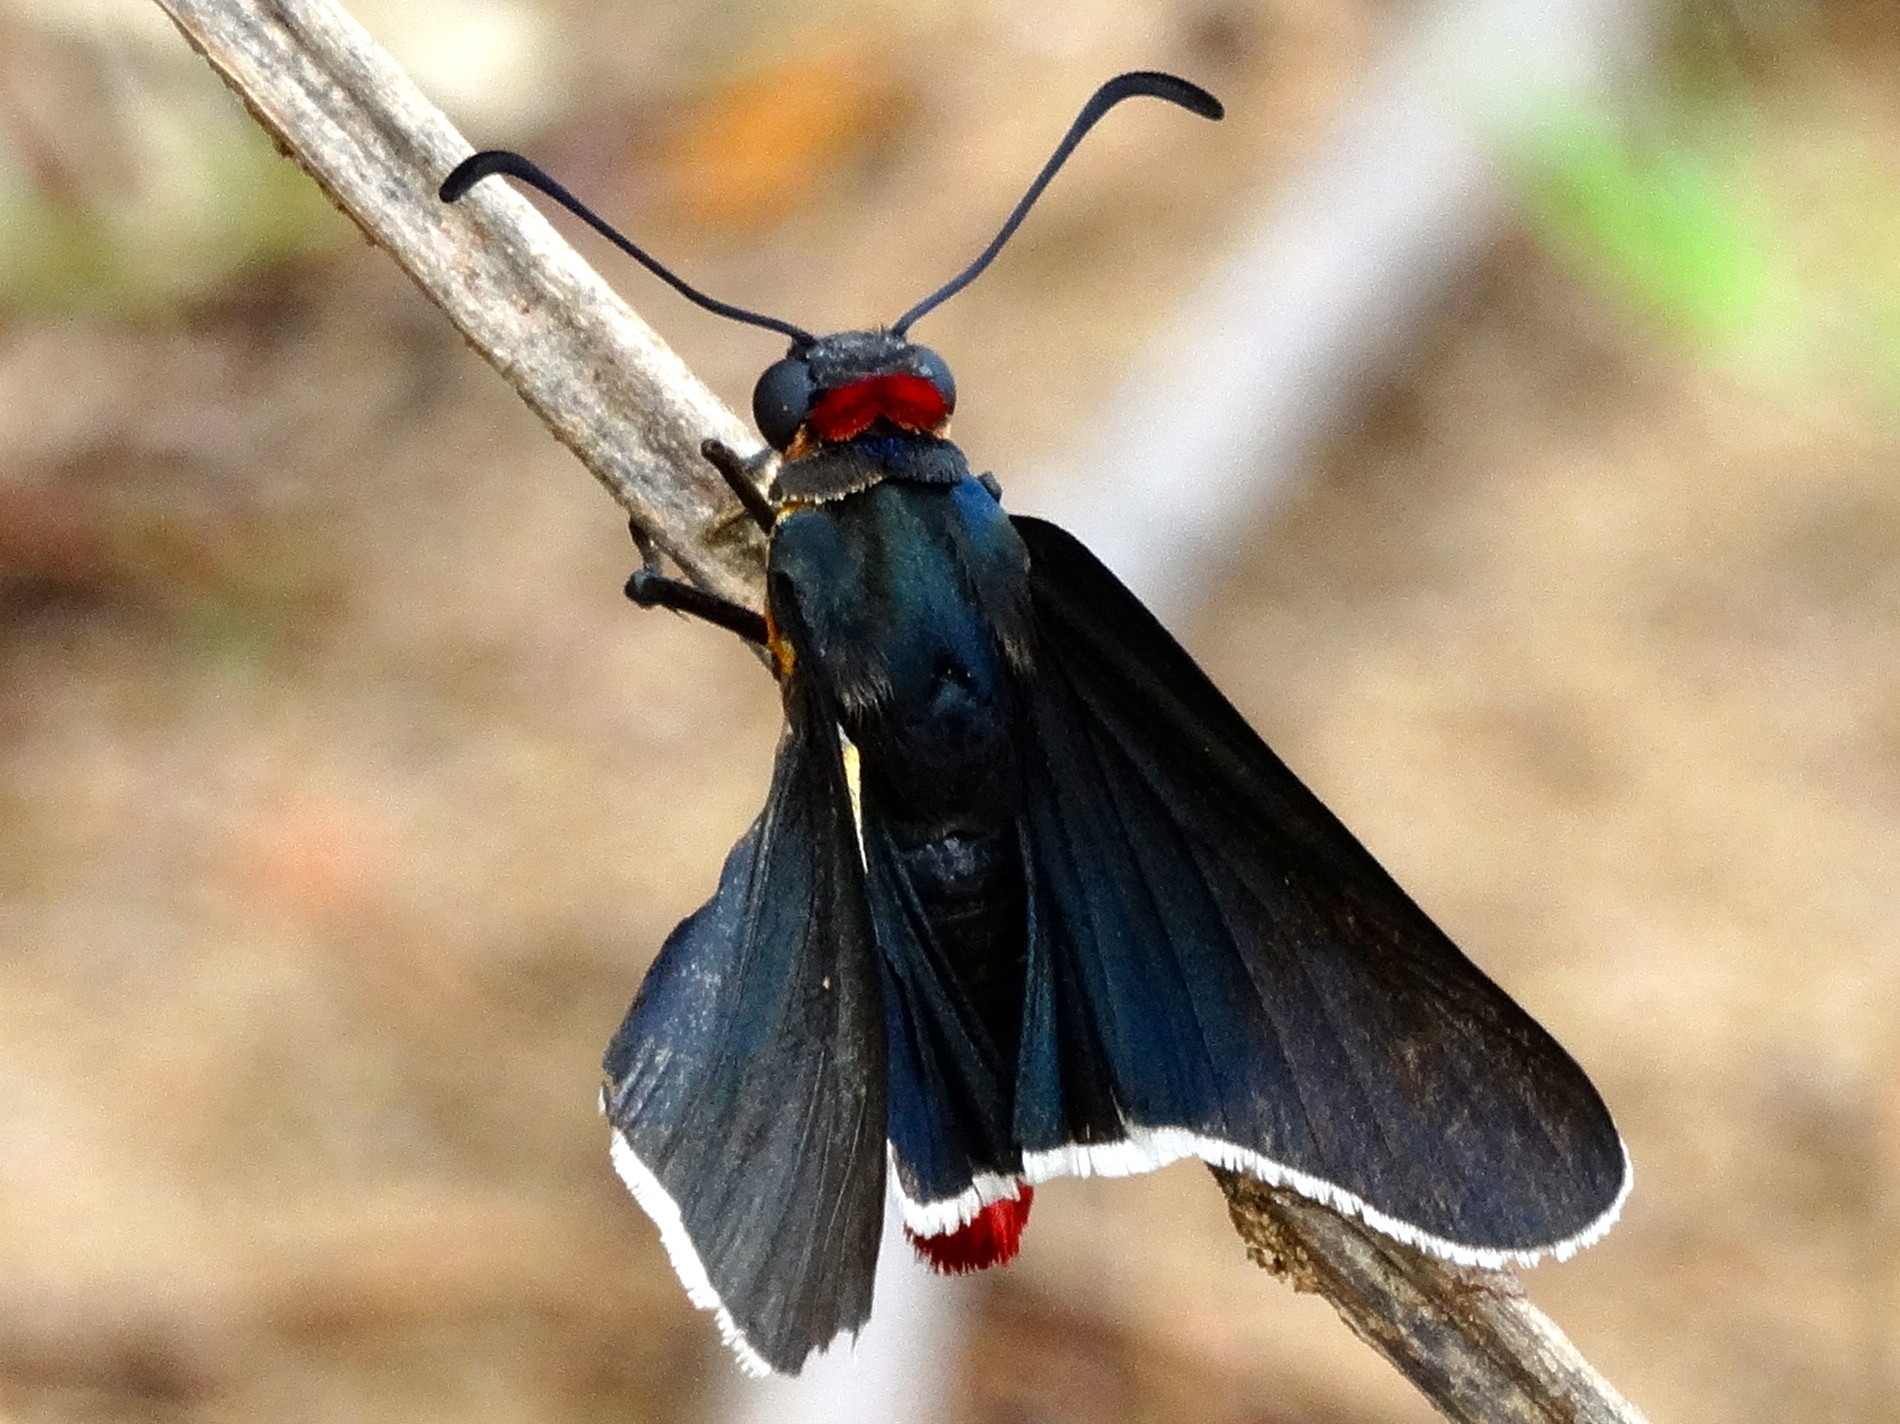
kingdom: Animalia
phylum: Arthropoda
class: Insecta
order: Lepidoptera
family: Hesperiidae
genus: Mysoria
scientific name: Mysoria affinis
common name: Red-collared firetip
